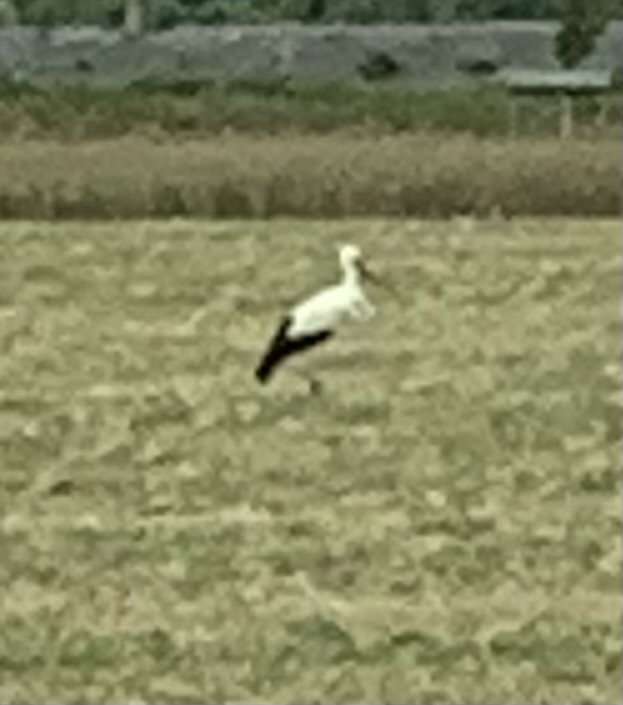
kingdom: Animalia
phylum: Chordata
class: Aves
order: Ciconiiformes
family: Ciconiidae
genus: Ciconia
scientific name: Ciconia ciconia
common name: White stork
